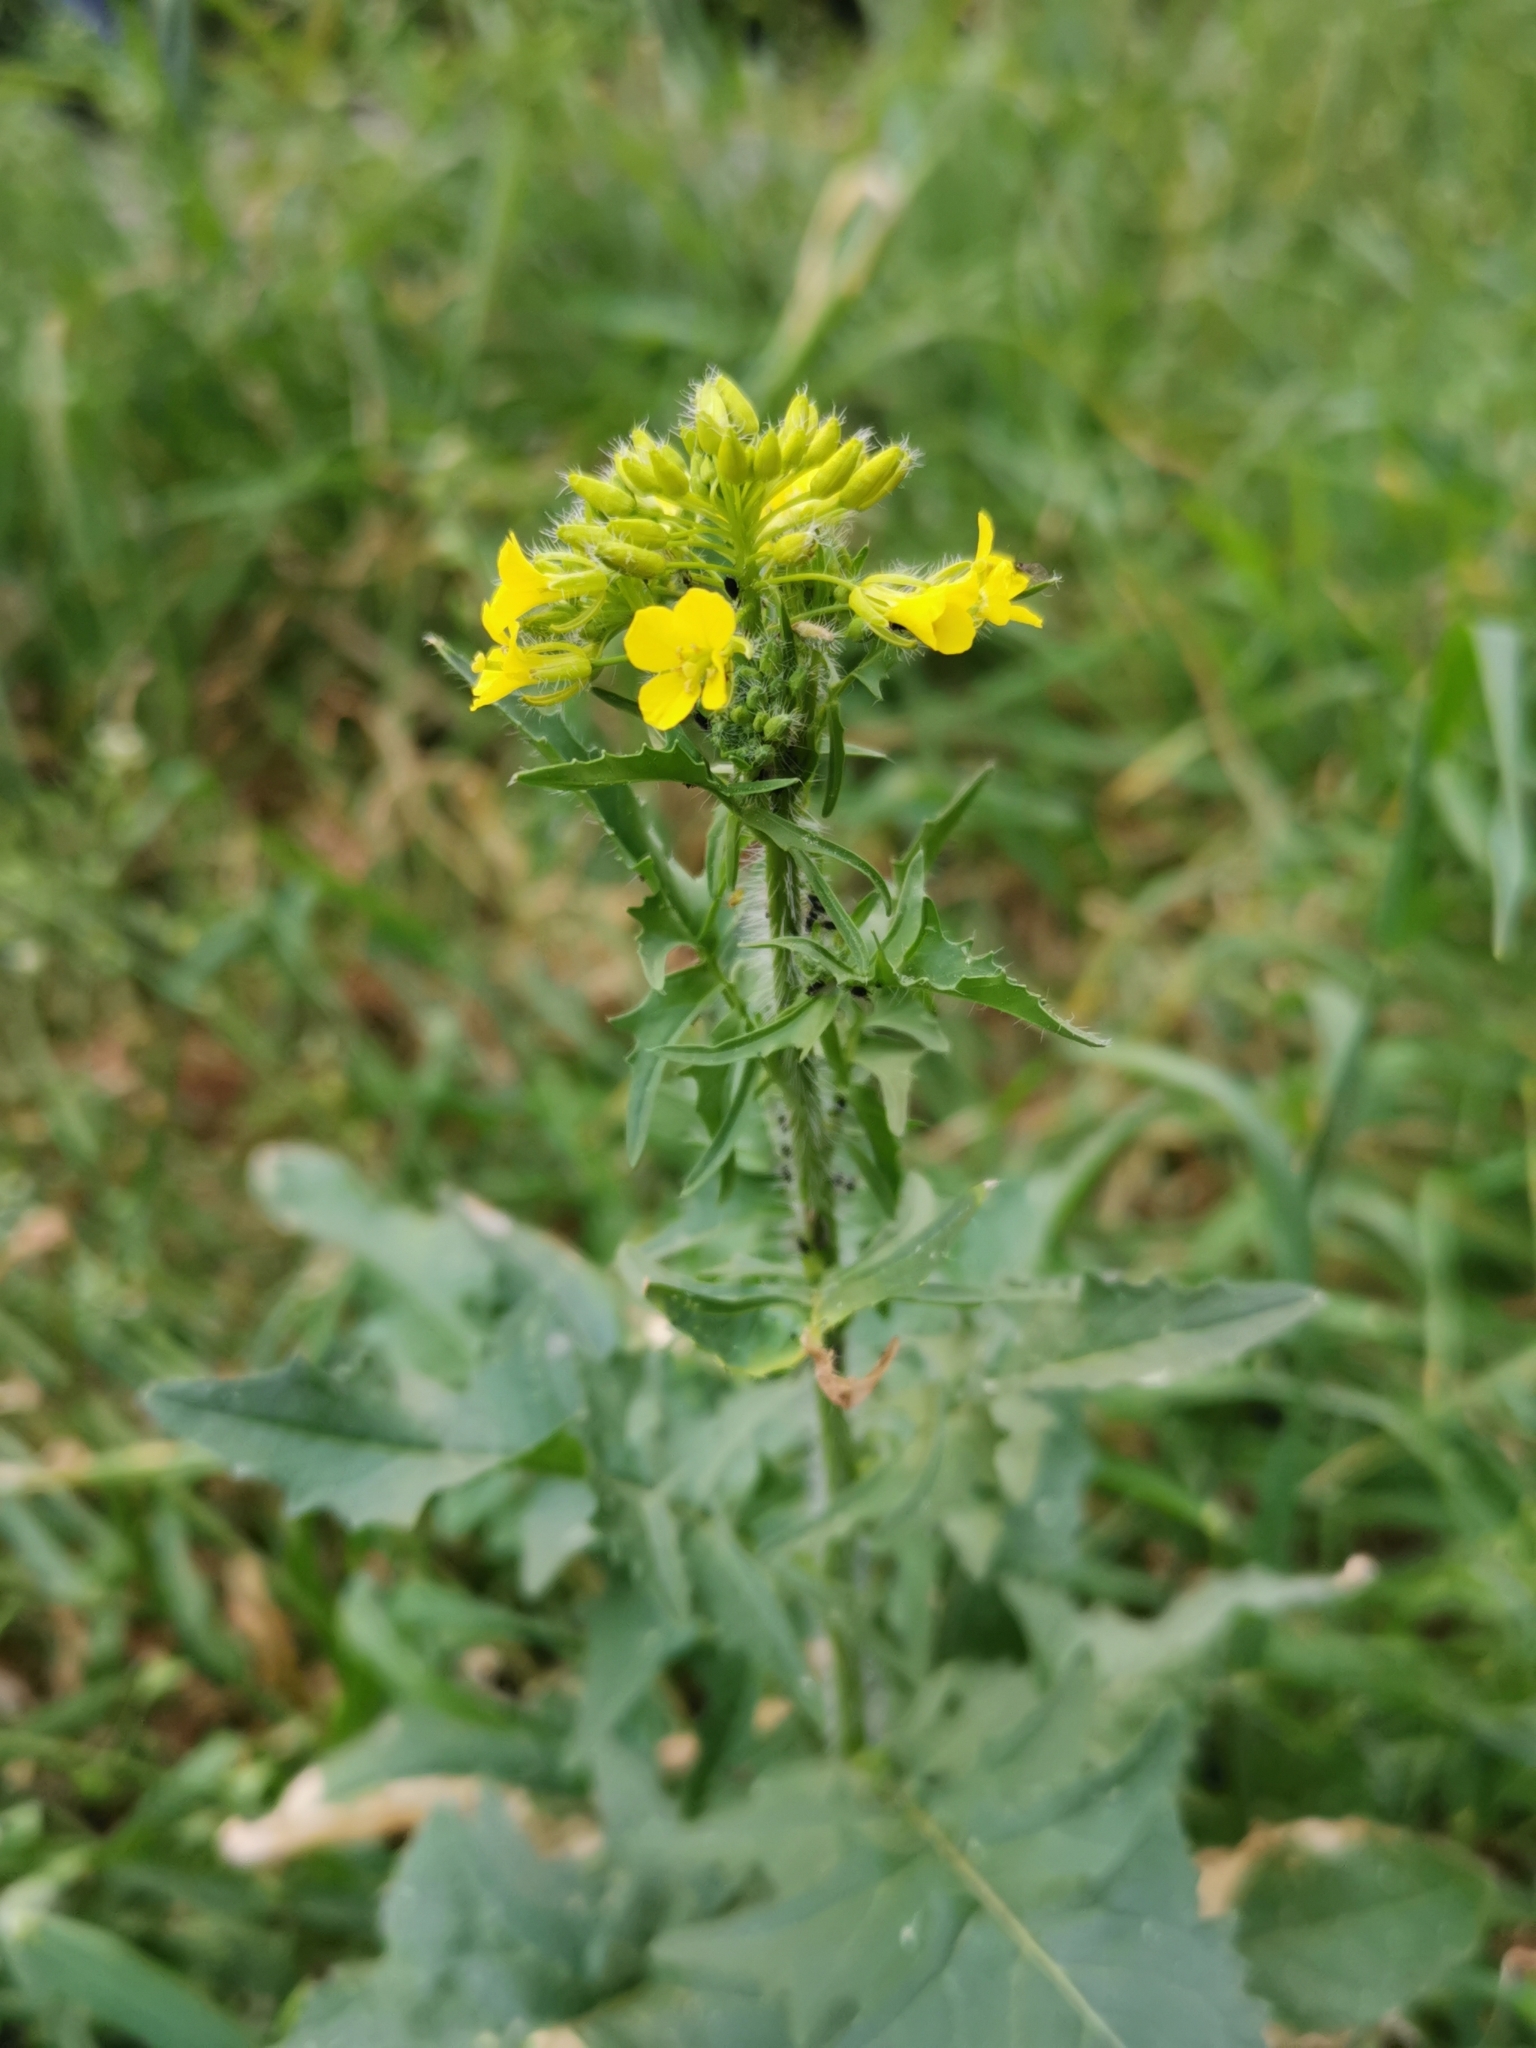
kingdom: Plantae
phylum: Tracheophyta
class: Magnoliopsida
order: Brassicales
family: Brassicaceae
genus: Sisymbrium
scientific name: Sisymbrium loeselii
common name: False london-rocket
